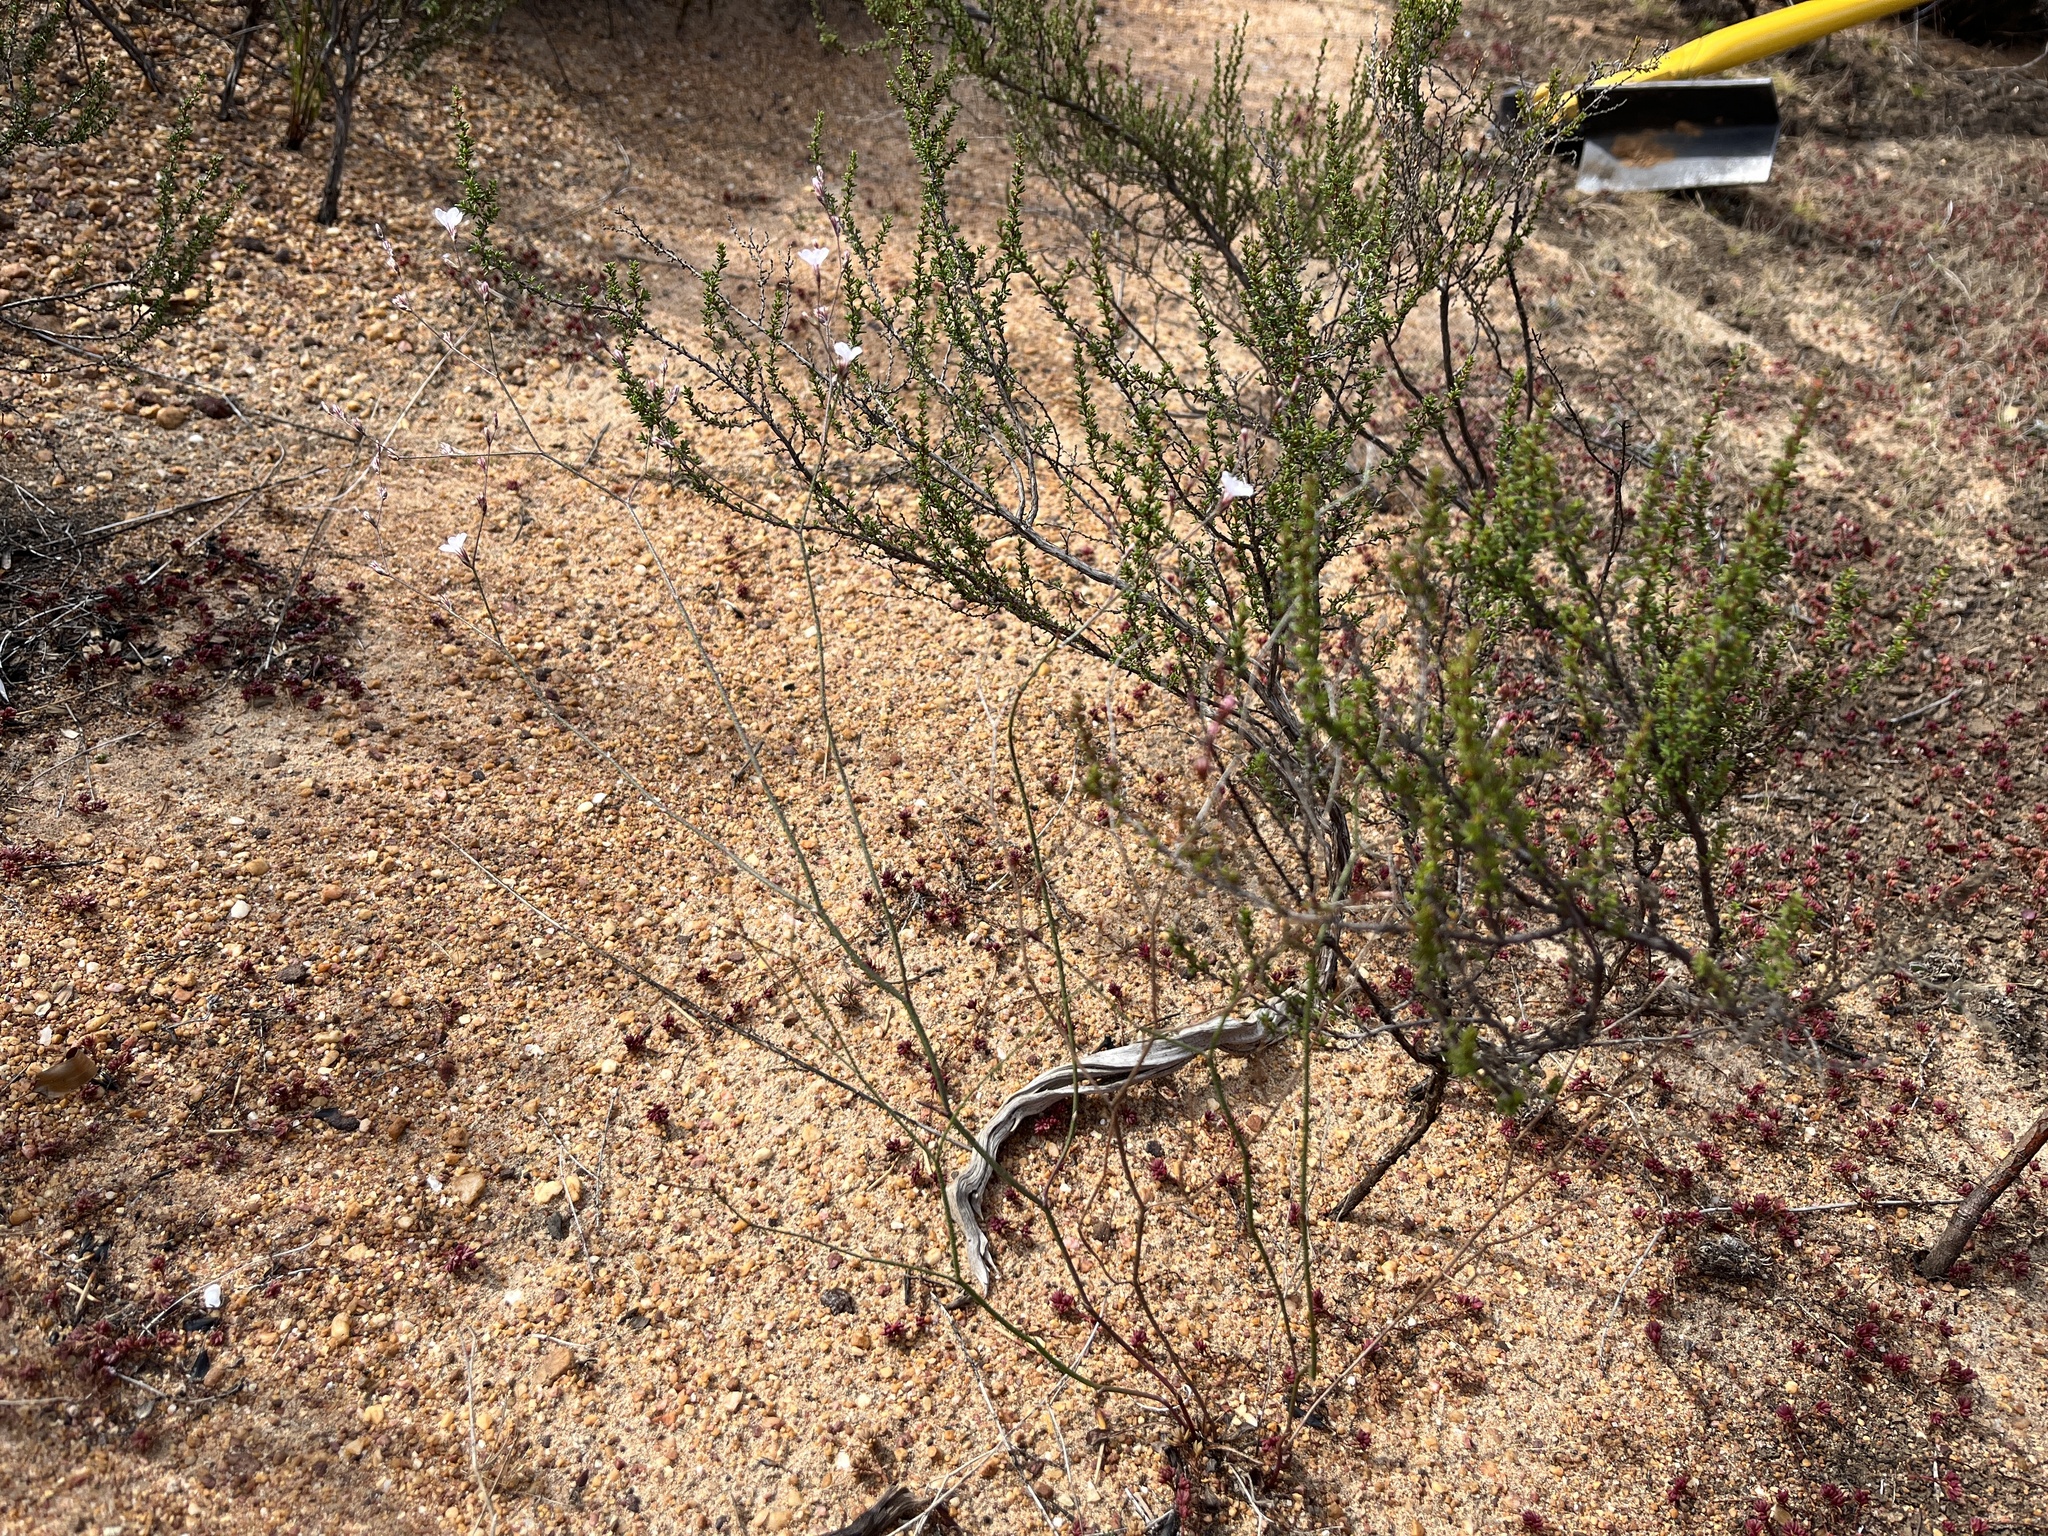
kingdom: Plantae
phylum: Tracheophyta
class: Magnoliopsida
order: Caryophyllales
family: Plumbaginaceae
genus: Limonium
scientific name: Limonium anthericoides
